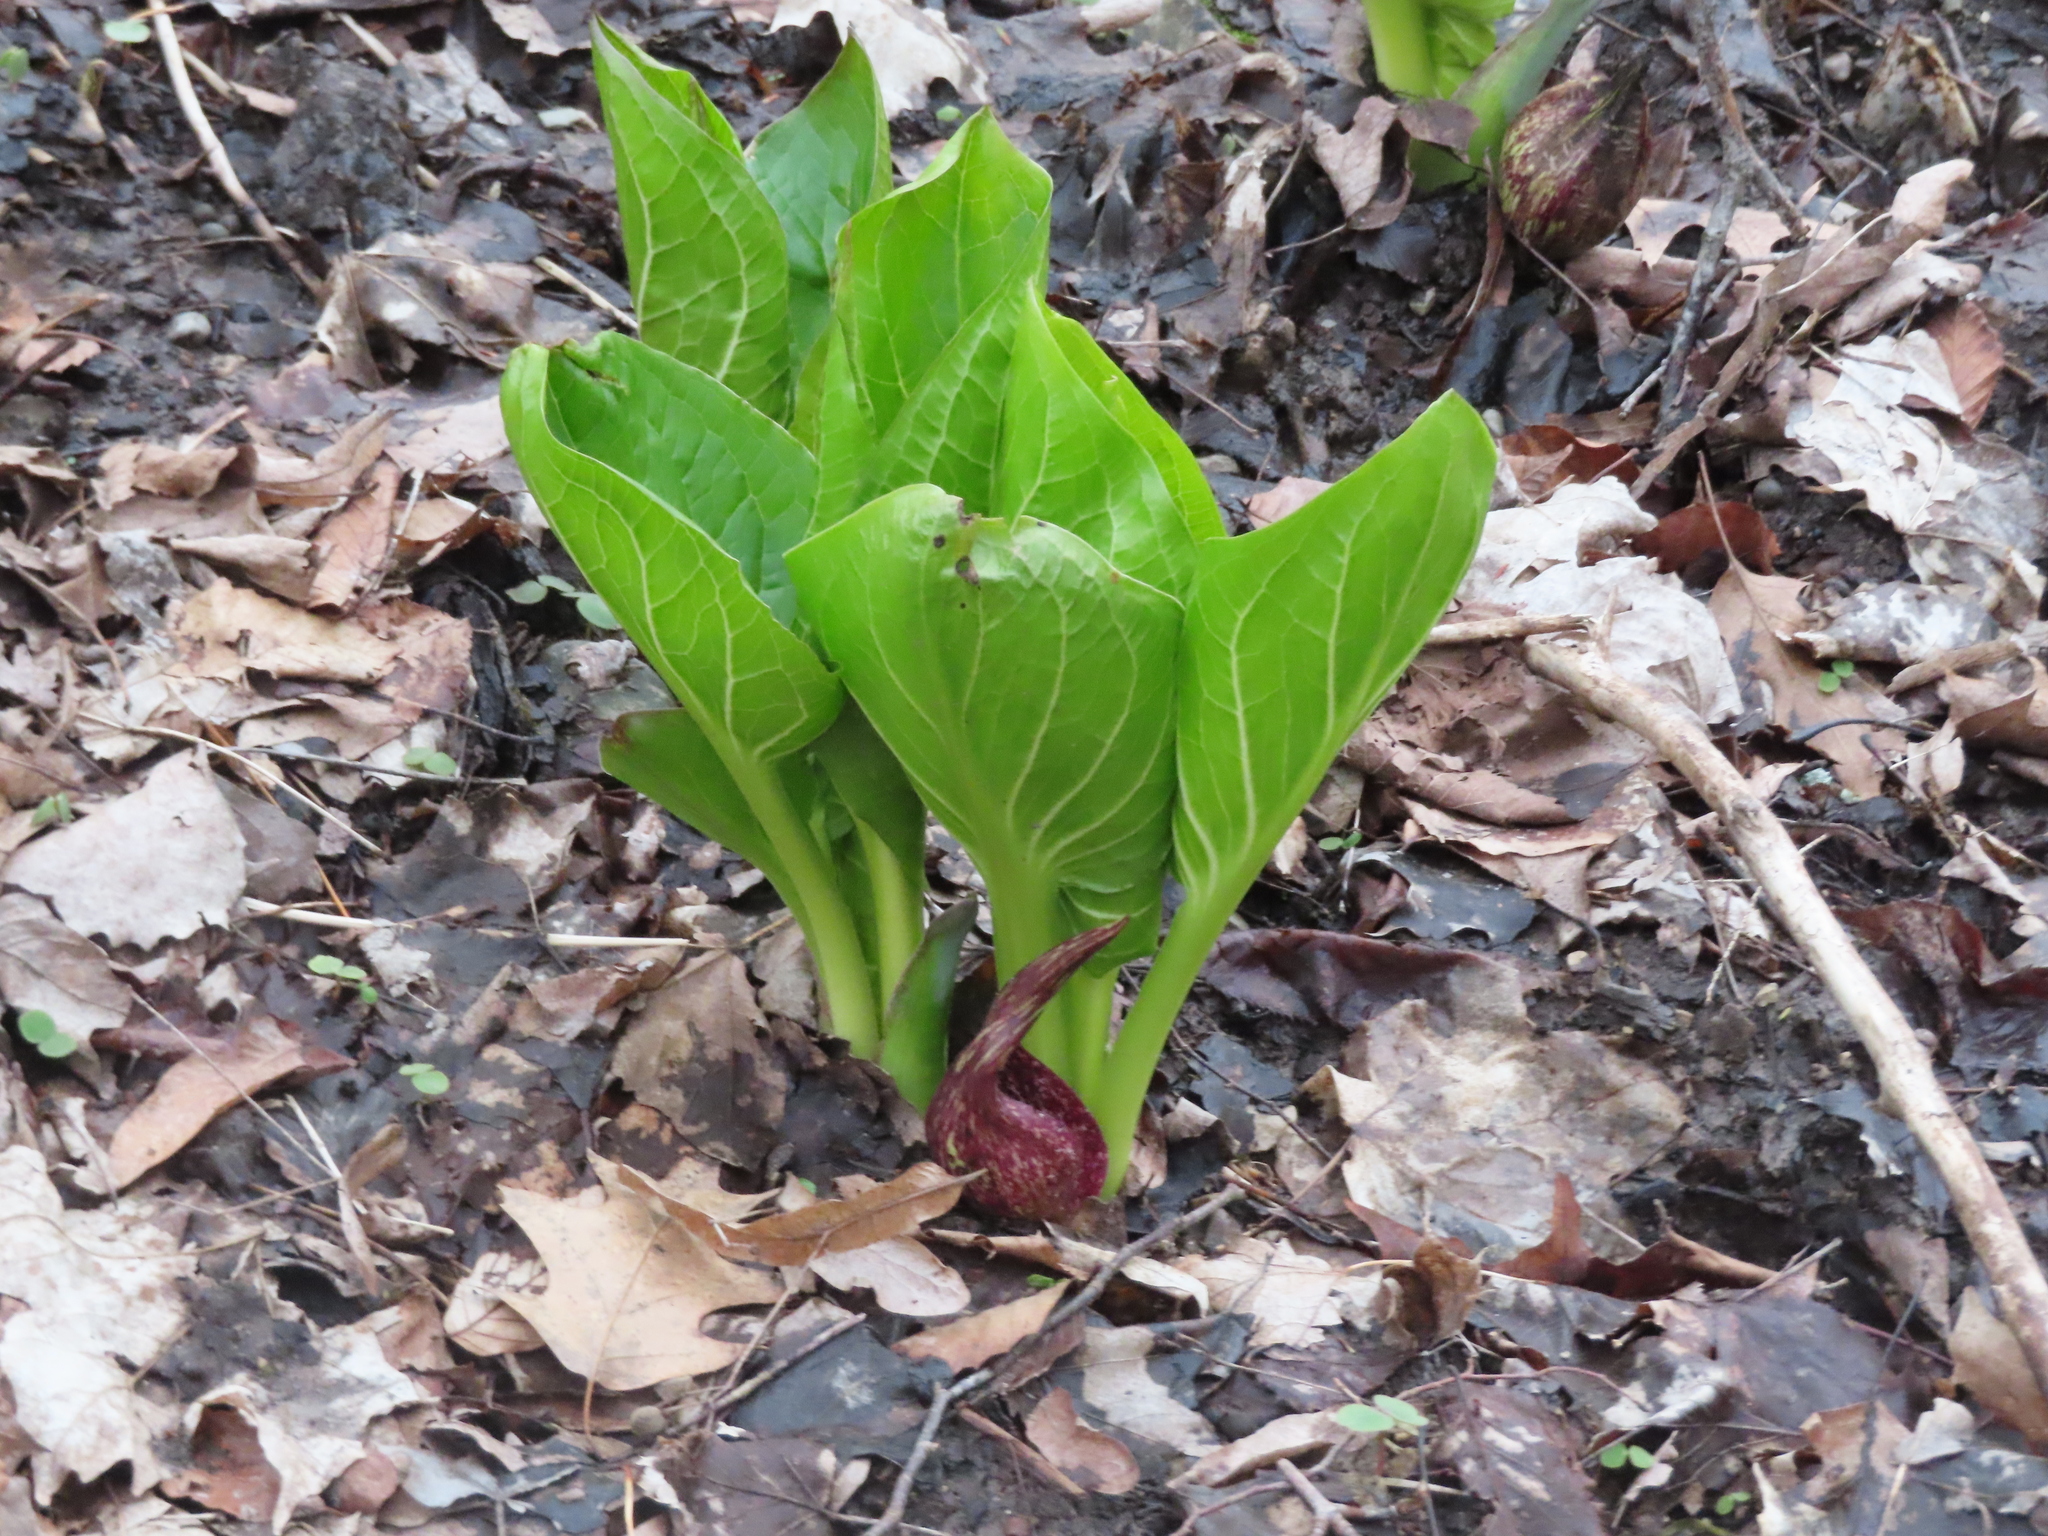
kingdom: Plantae
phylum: Tracheophyta
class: Liliopsida
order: Alismatales
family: Araceae
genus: Symplocarpus
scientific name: Symplocarpus foetidus
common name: Eastern skunk cabbage
